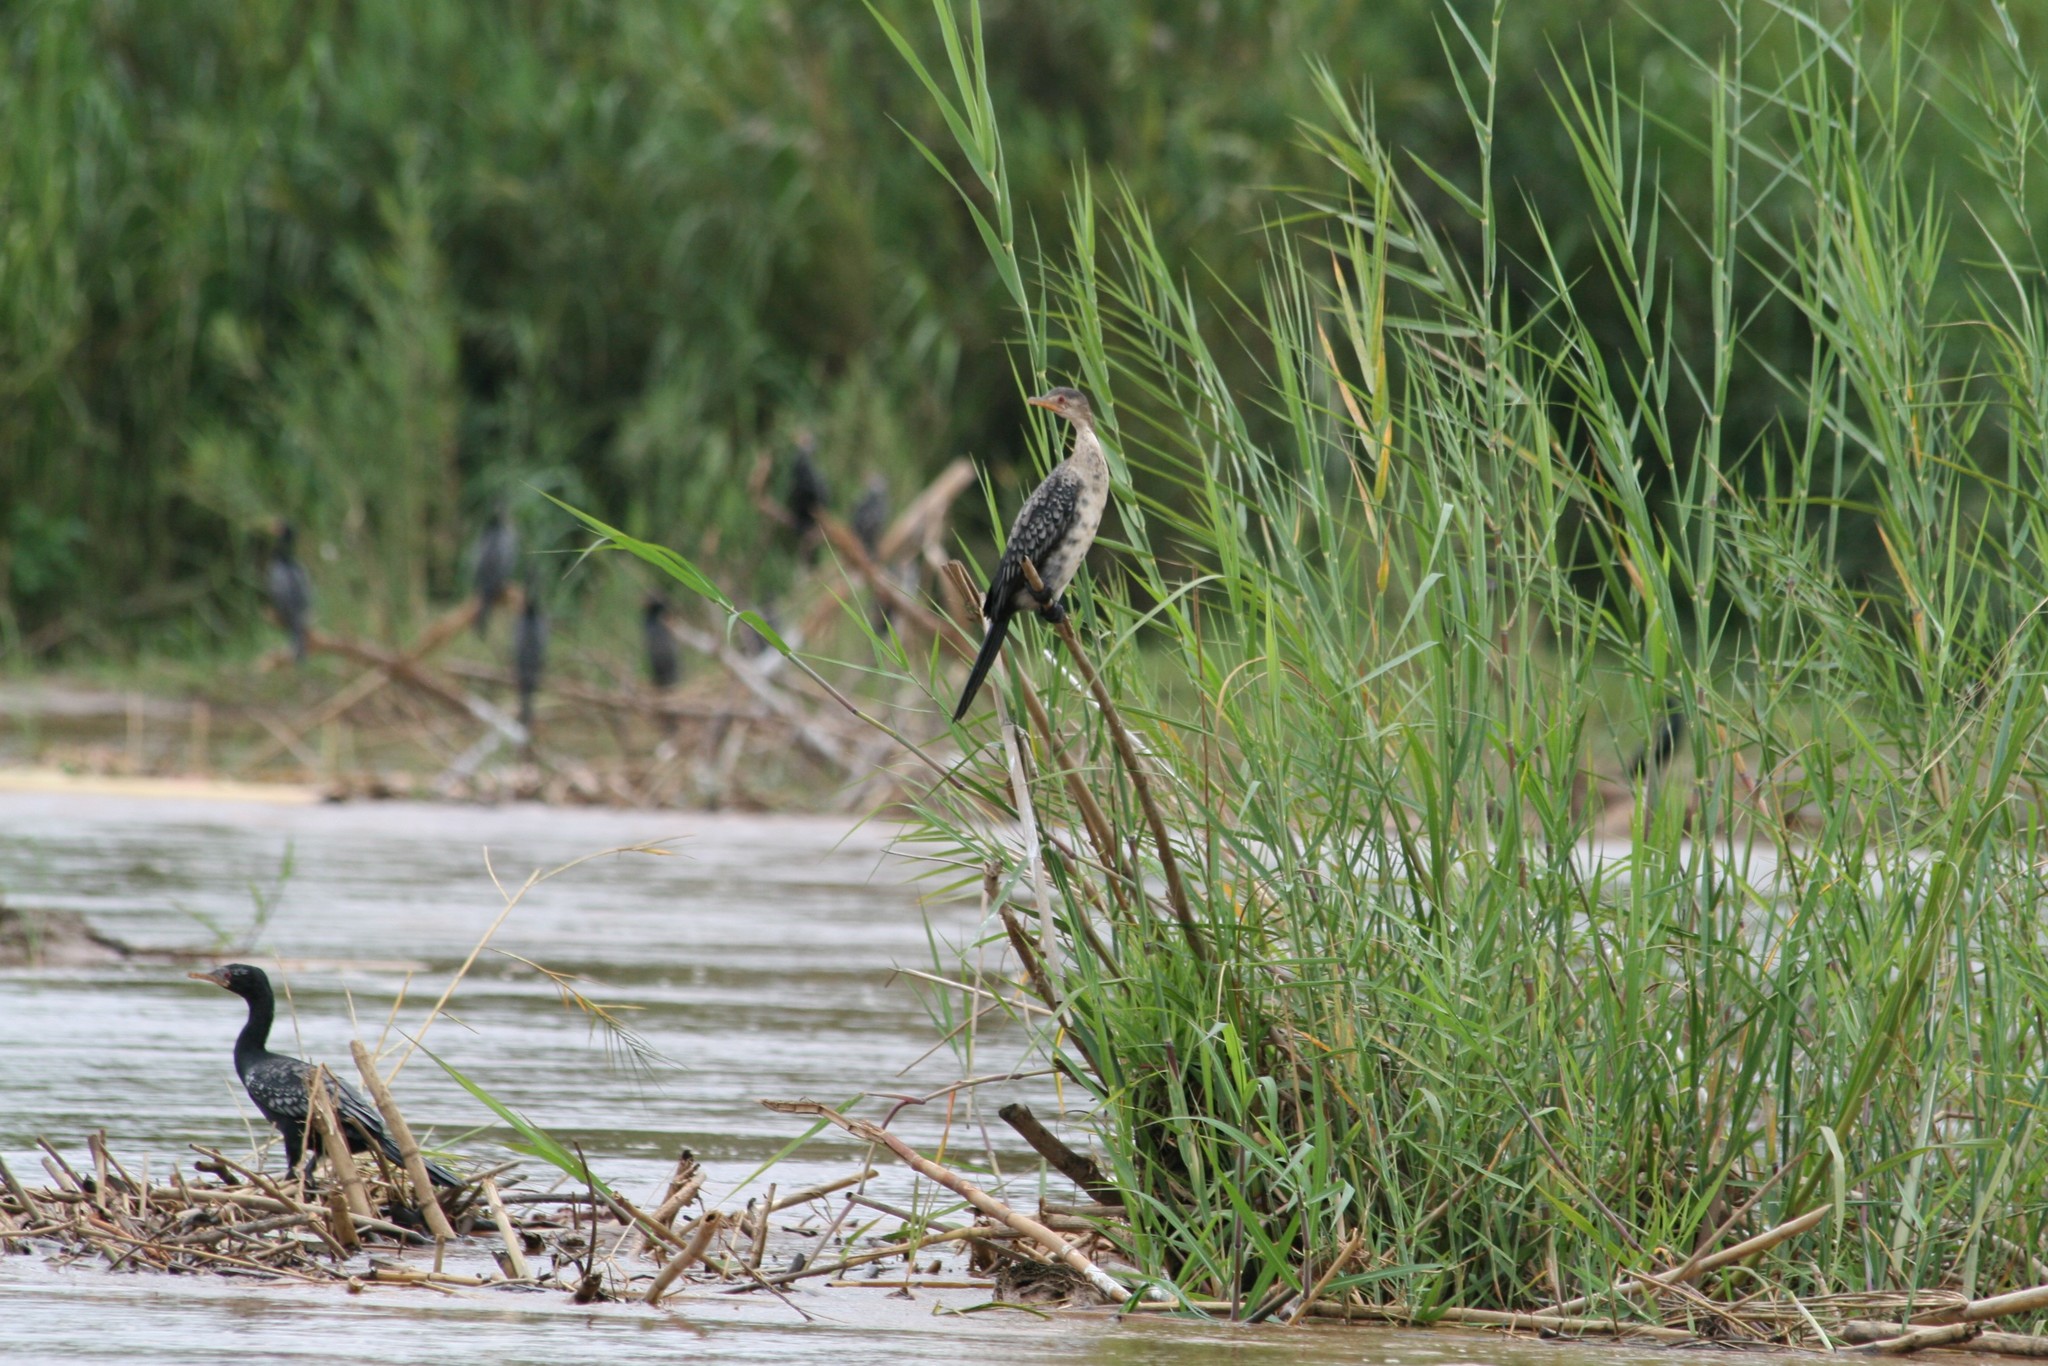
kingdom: Animalia
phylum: Chordata
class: Aves
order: Suliformes
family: Phalacrocoracidae
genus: Microcarbo
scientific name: Microcarbo africanus
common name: Long-tailed cormorant
